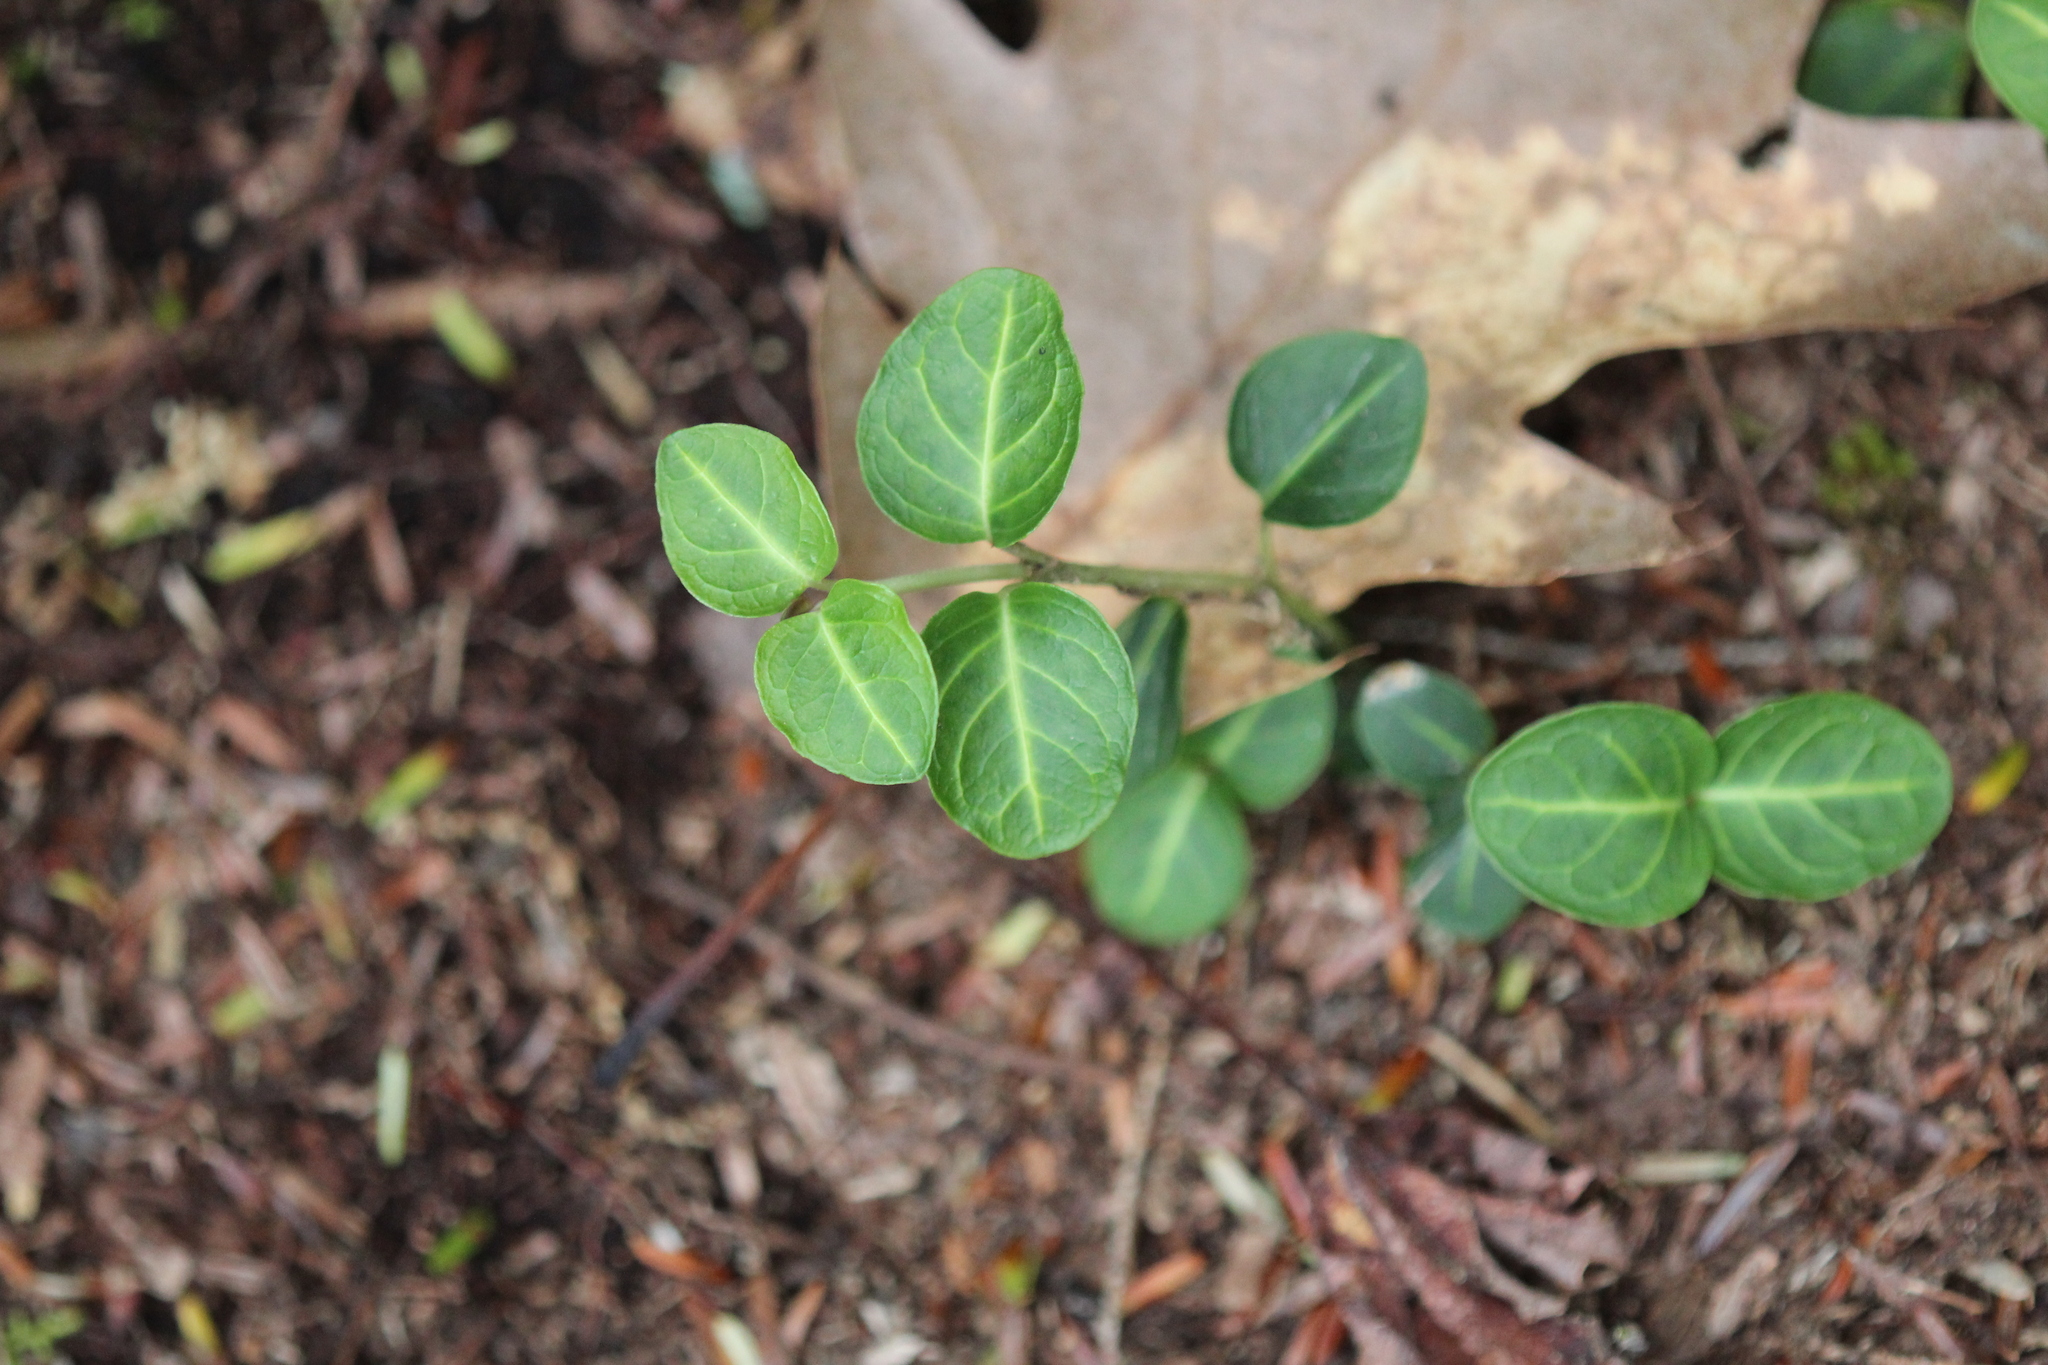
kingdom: Plantae
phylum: Tracheophyta
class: Magnoliopsida
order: Gentianales
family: Rubiaceae
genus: Mitchella
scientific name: Mitchella repens
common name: Partridge-berry
